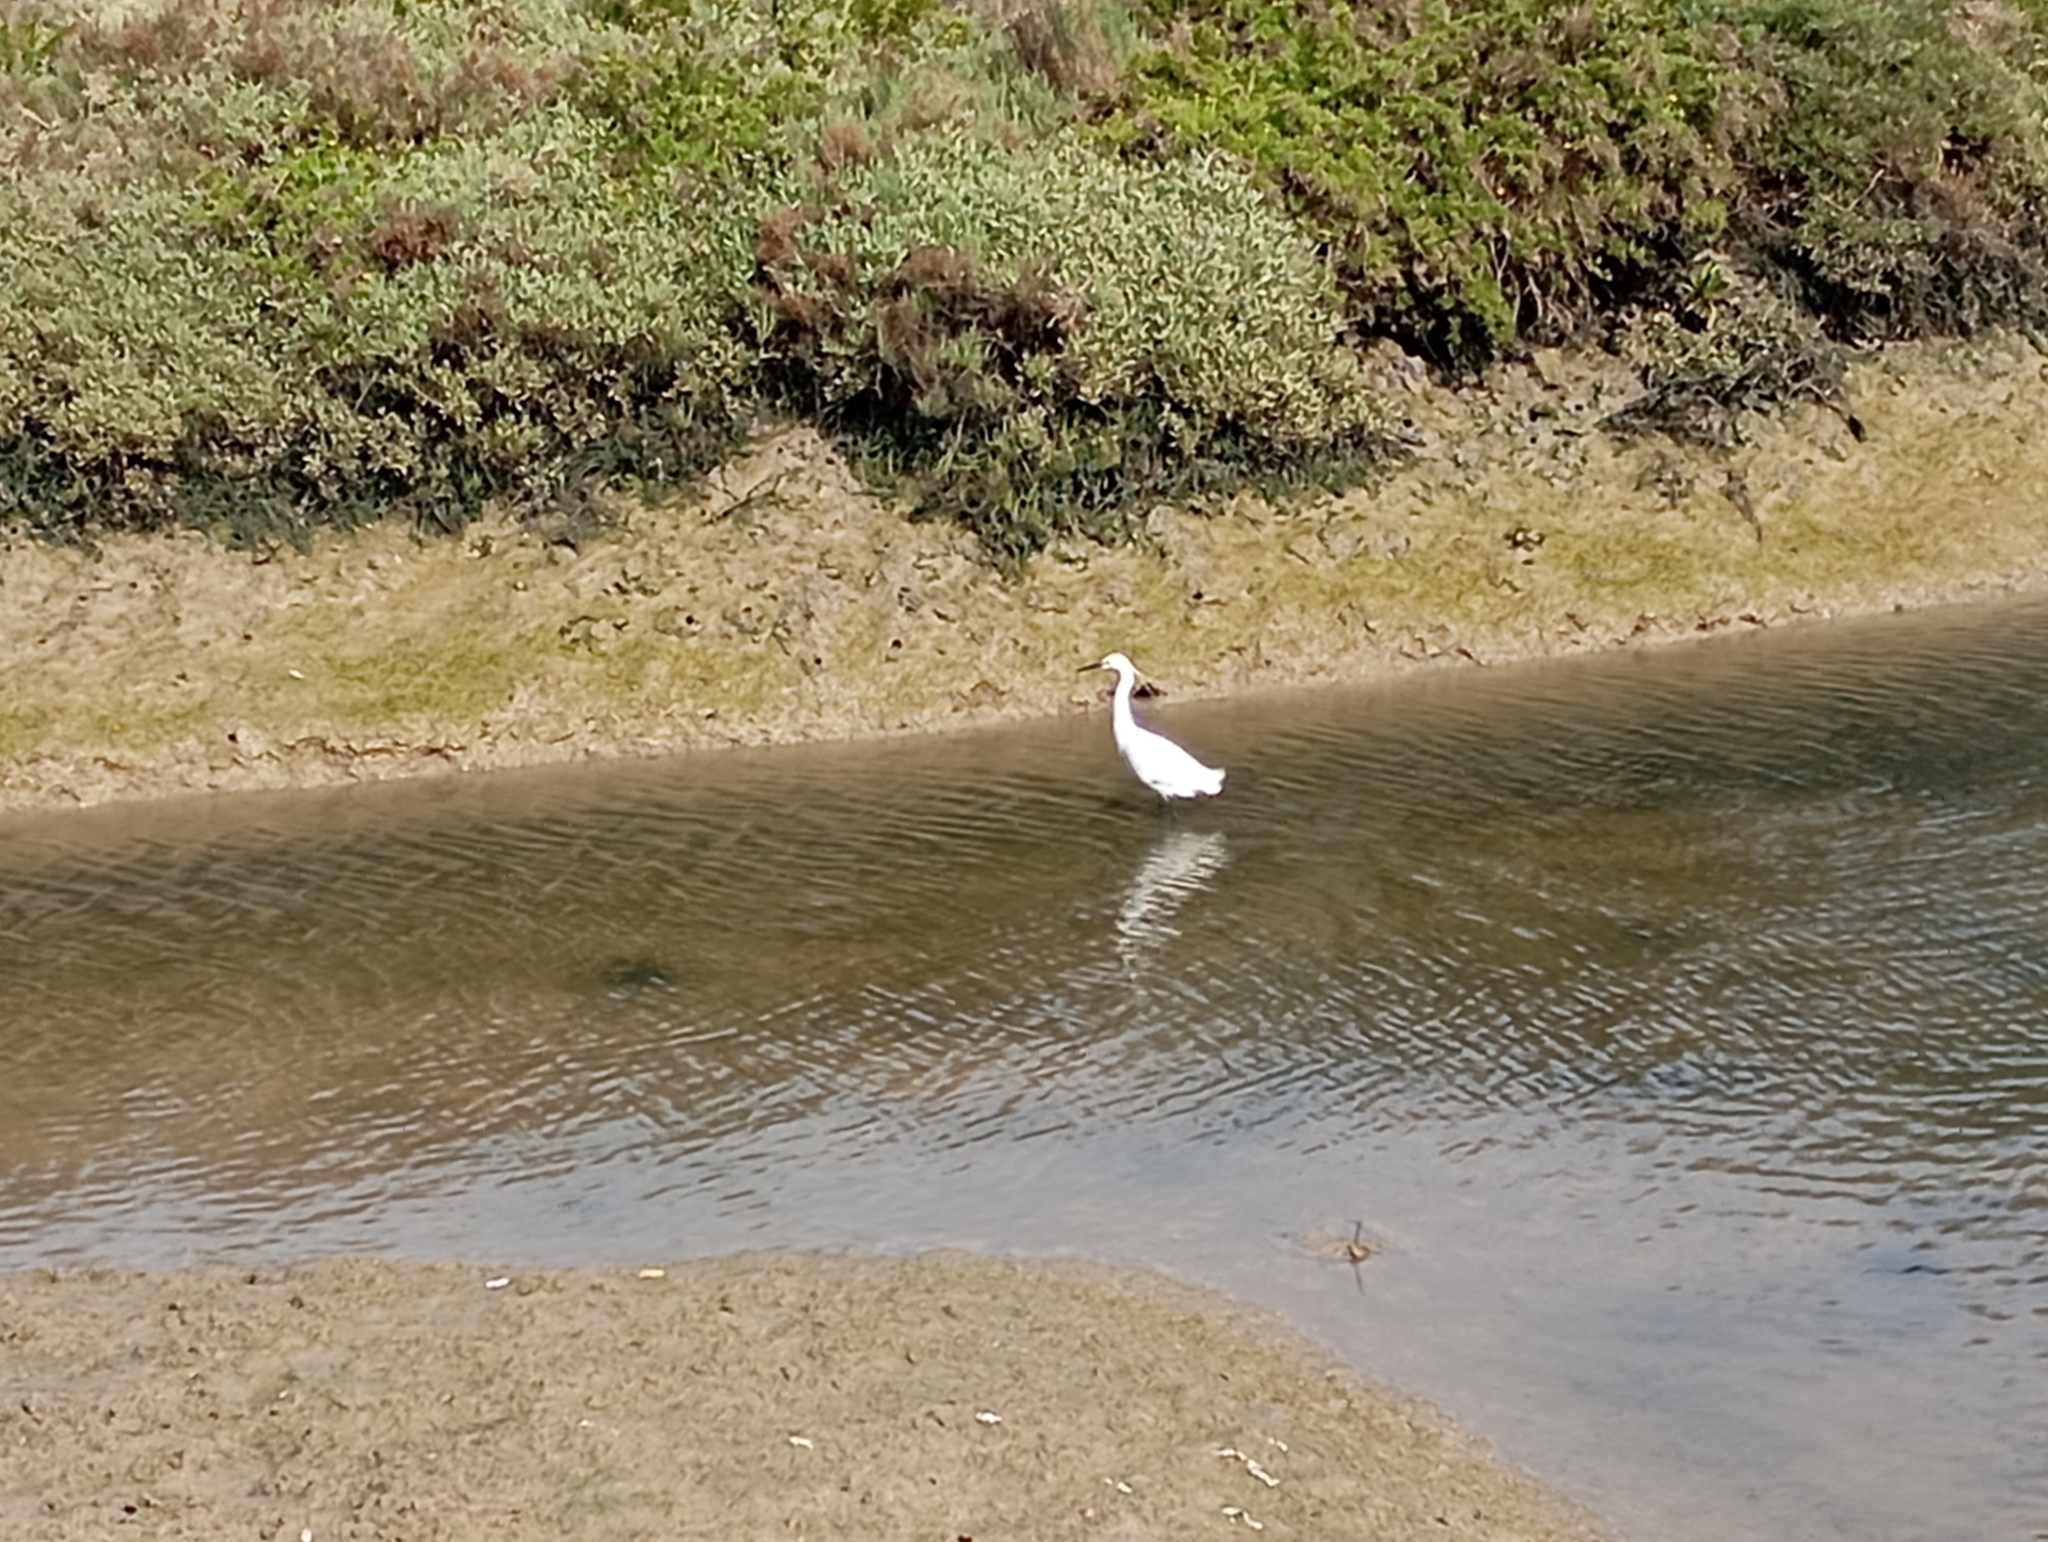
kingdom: Animalia
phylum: Chordata
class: Aves
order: Pelecaniformes
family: Ardeidae
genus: Egretta
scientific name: Egretta garzetta
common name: Little egret
